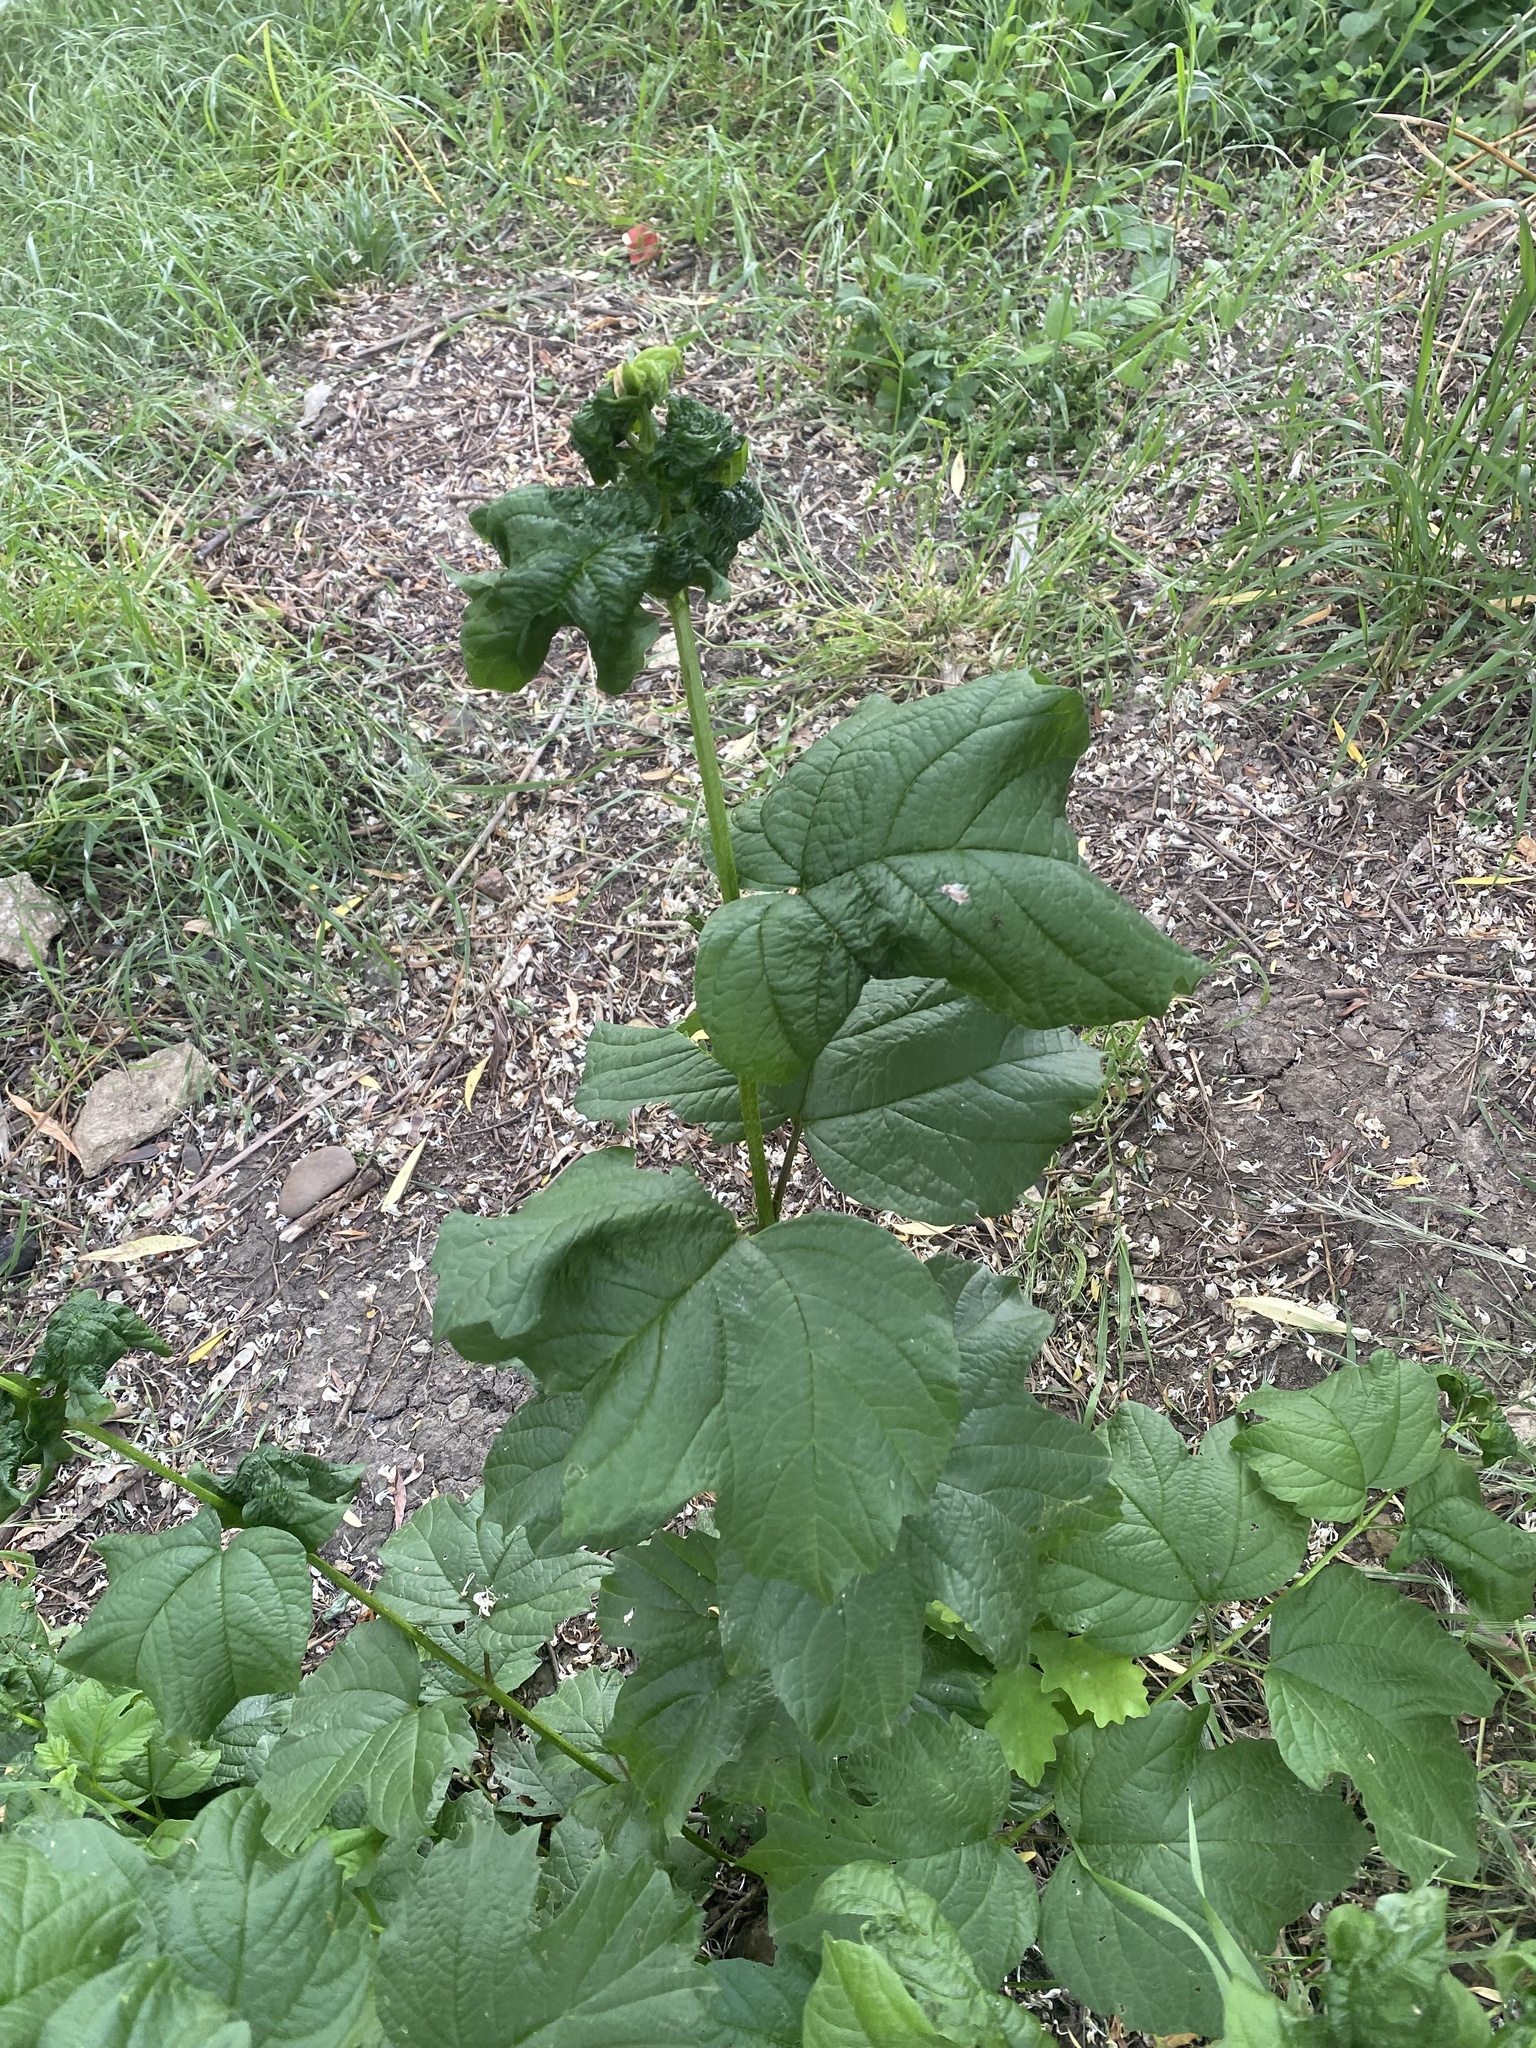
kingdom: Plantae
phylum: Tracheophyta
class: Magnoliopsida
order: Dipsacales
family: Viburnaceae
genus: Viburnum
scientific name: Viburnum opulus
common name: Guelder-rose
